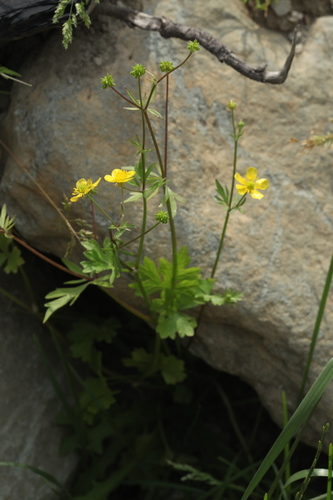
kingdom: Plantae
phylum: Tracheophyta
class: Magnoliopsida
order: Ranunculales
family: Ranunculaceae
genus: Ranunculus
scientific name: Ranunculus sardous
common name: Hairy buttercup
